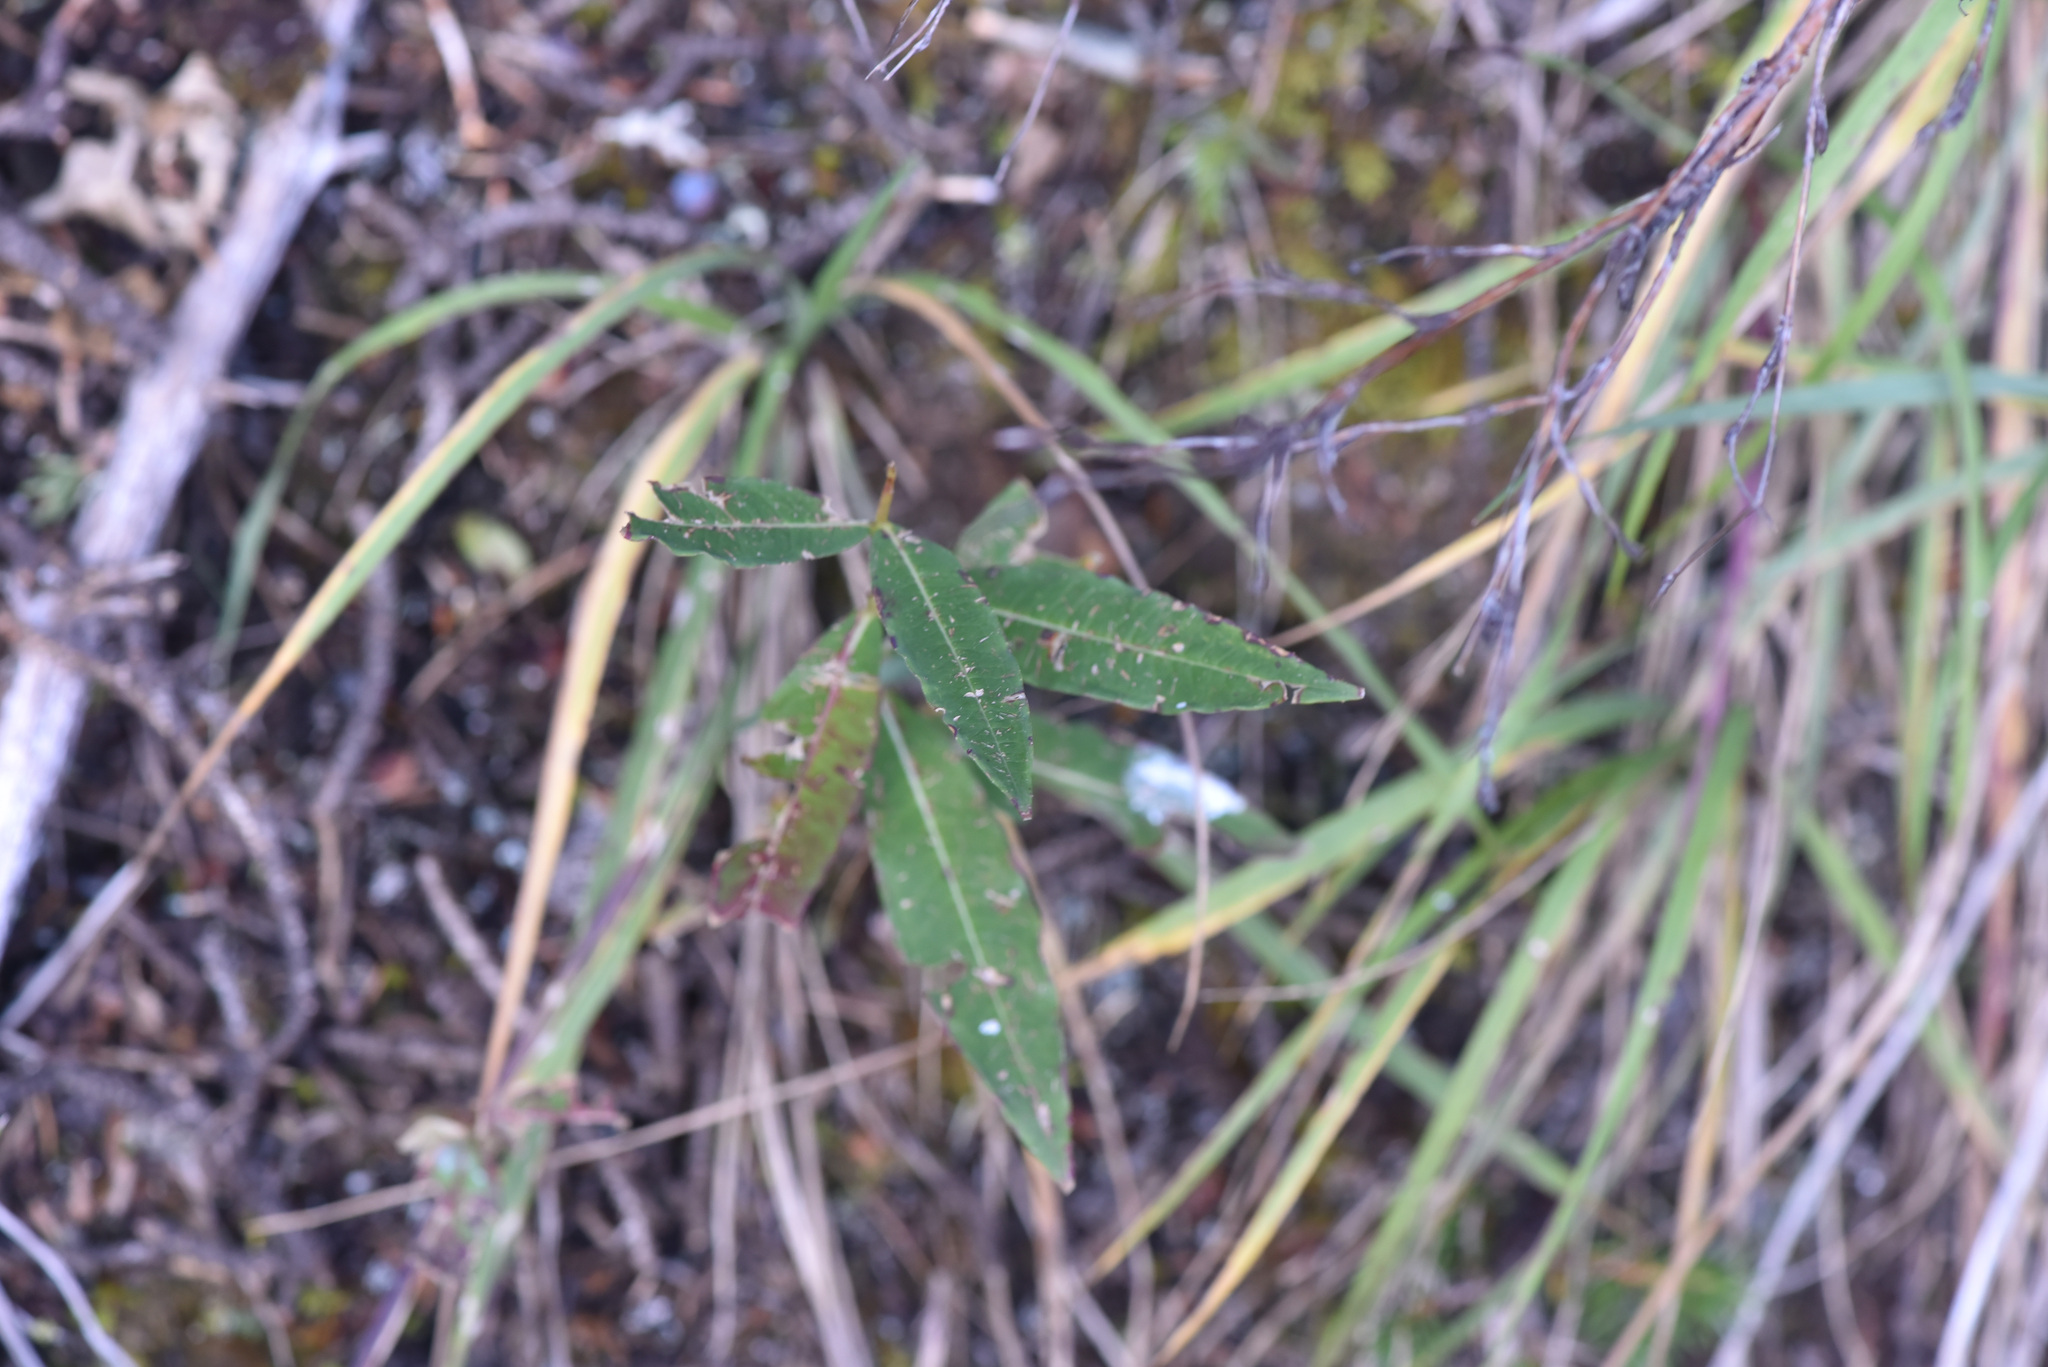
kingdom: Plantae
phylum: Tracheophyta
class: Magnoliopsida
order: Myrtales
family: Onagraceae
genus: Chamaenerion
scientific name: Chamaenerion angustifolium
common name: Fireweed
